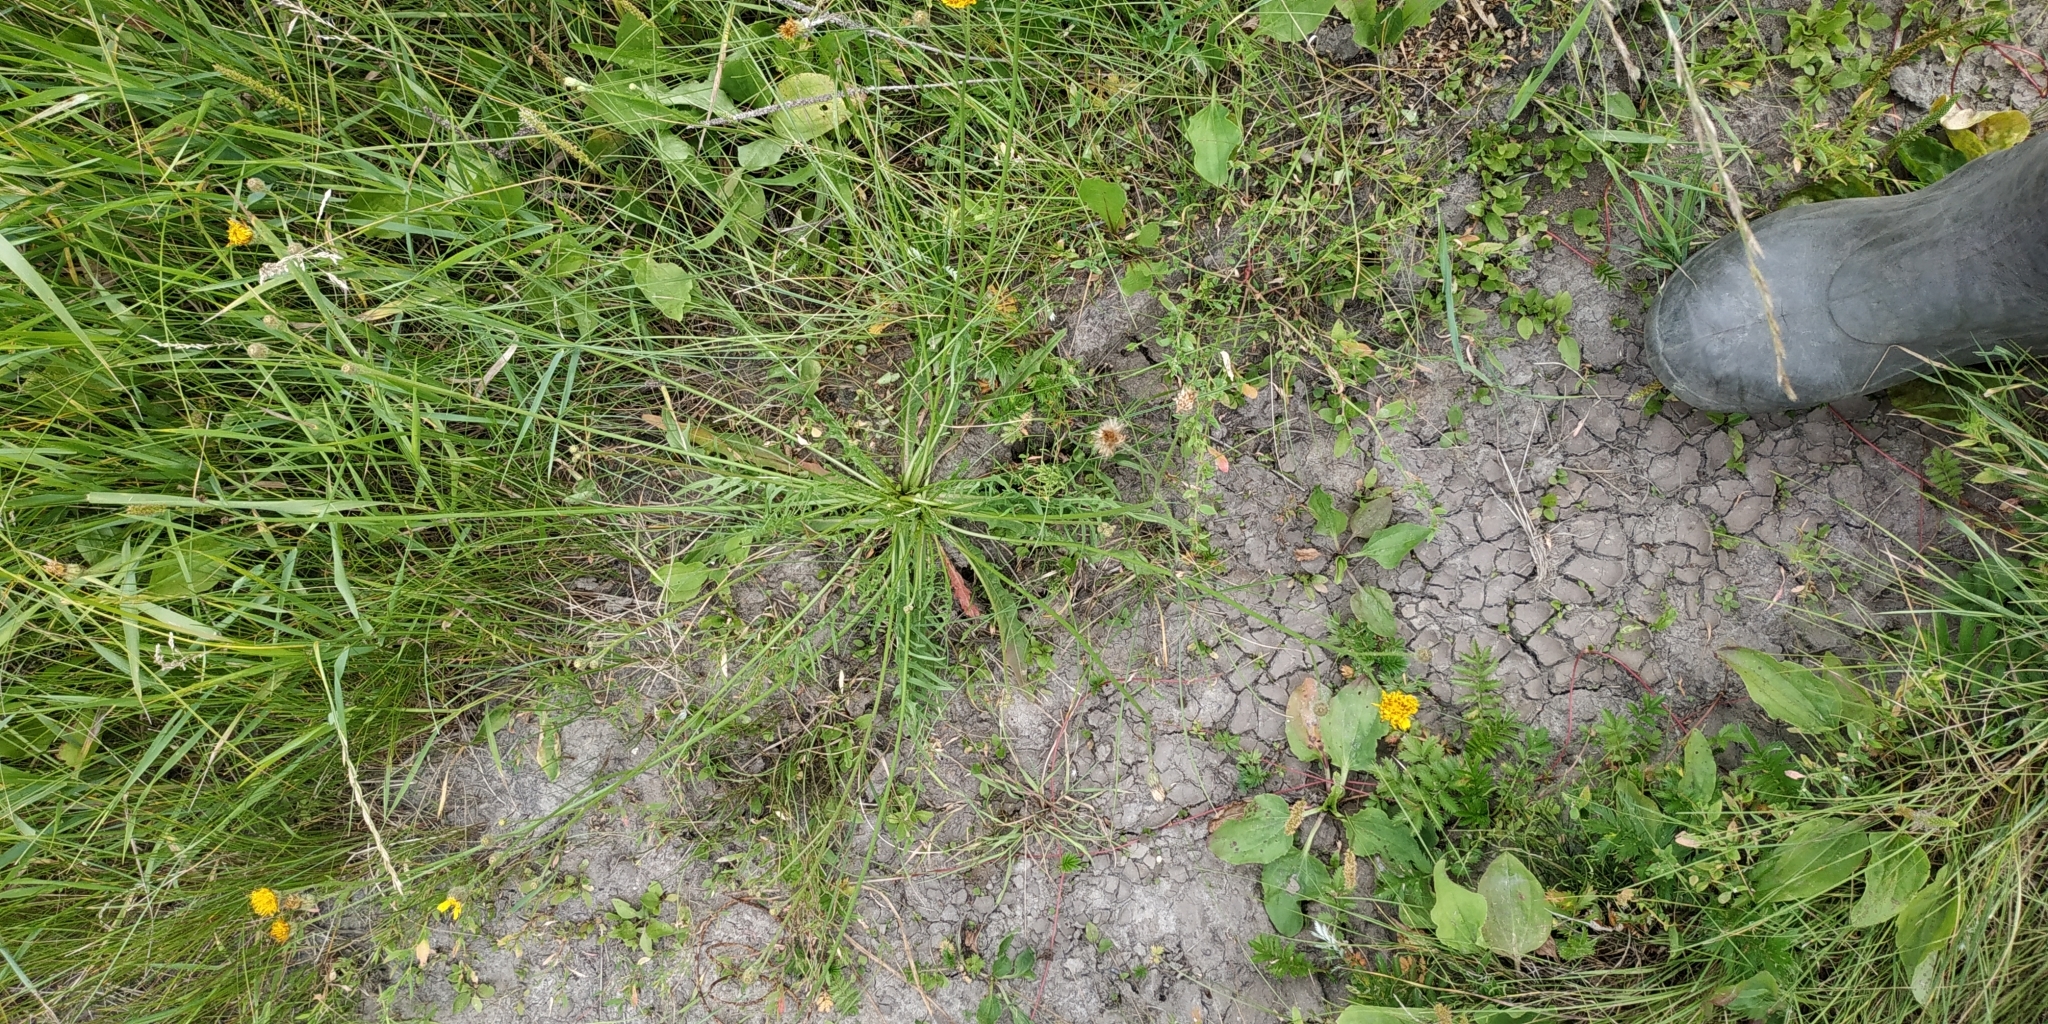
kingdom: Plantae
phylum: Tracheophyta
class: Magnoliopsida
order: Asterales
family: Asteraceae
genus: Scorzoneroides
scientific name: Scorzoneroides autumnalis
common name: Autumn hawkbit
